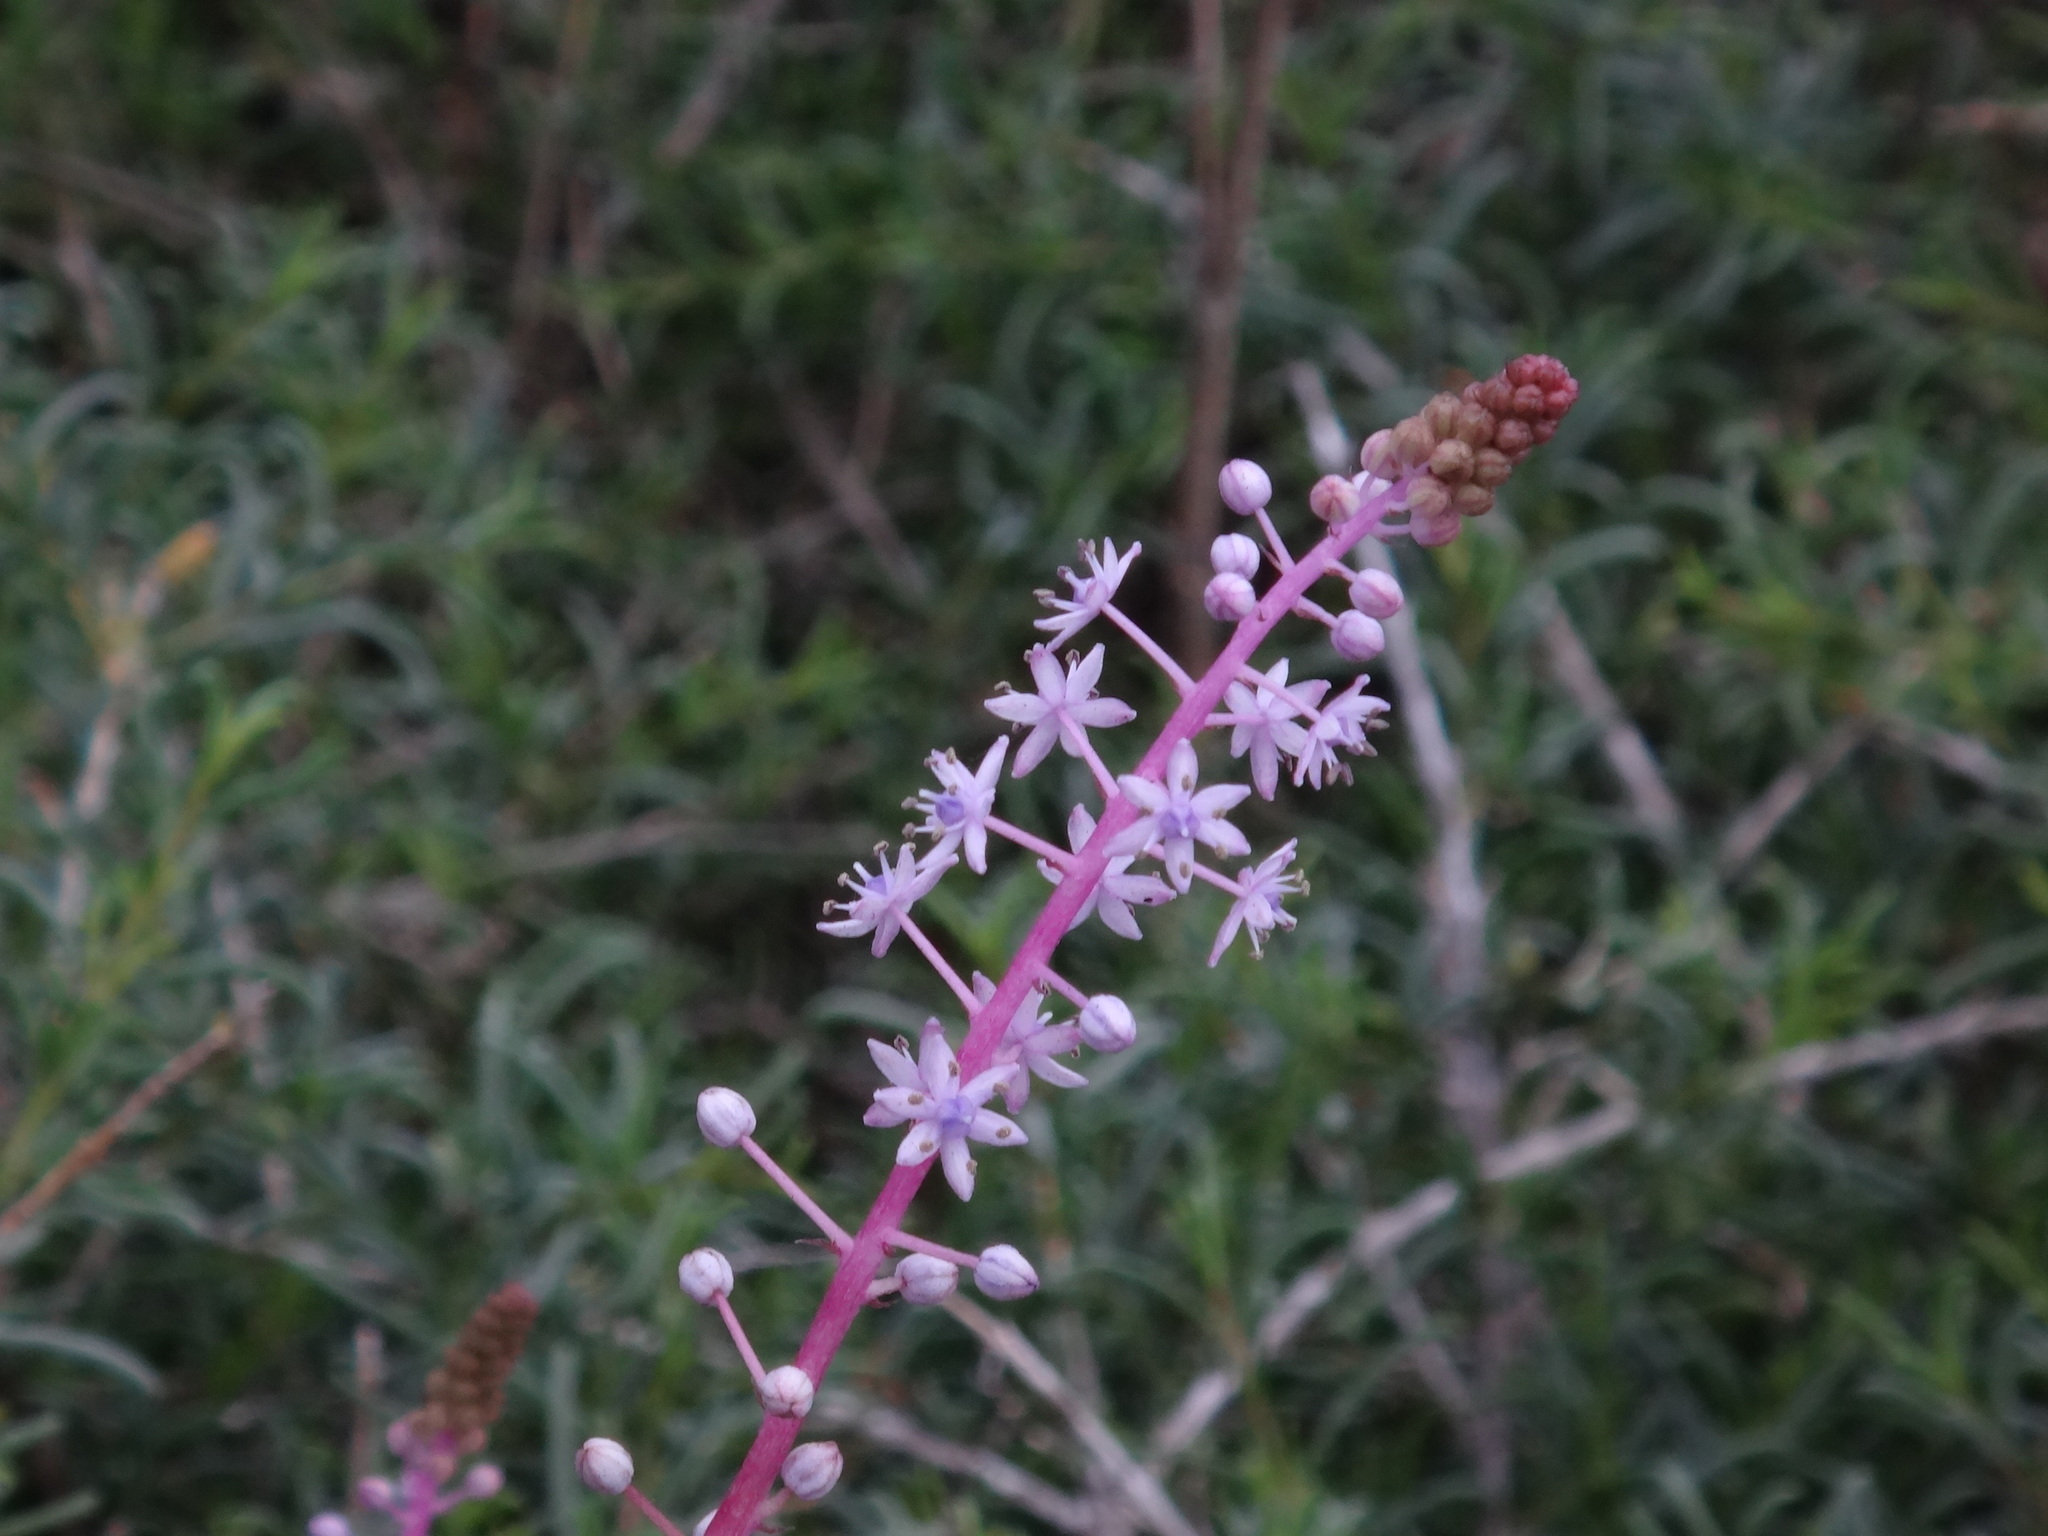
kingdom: Plantae
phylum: Tracheophyta
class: Liliopsida
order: Asparagales
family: Asparagaceae
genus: Scilla
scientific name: Scilla haemorrhoidalis
